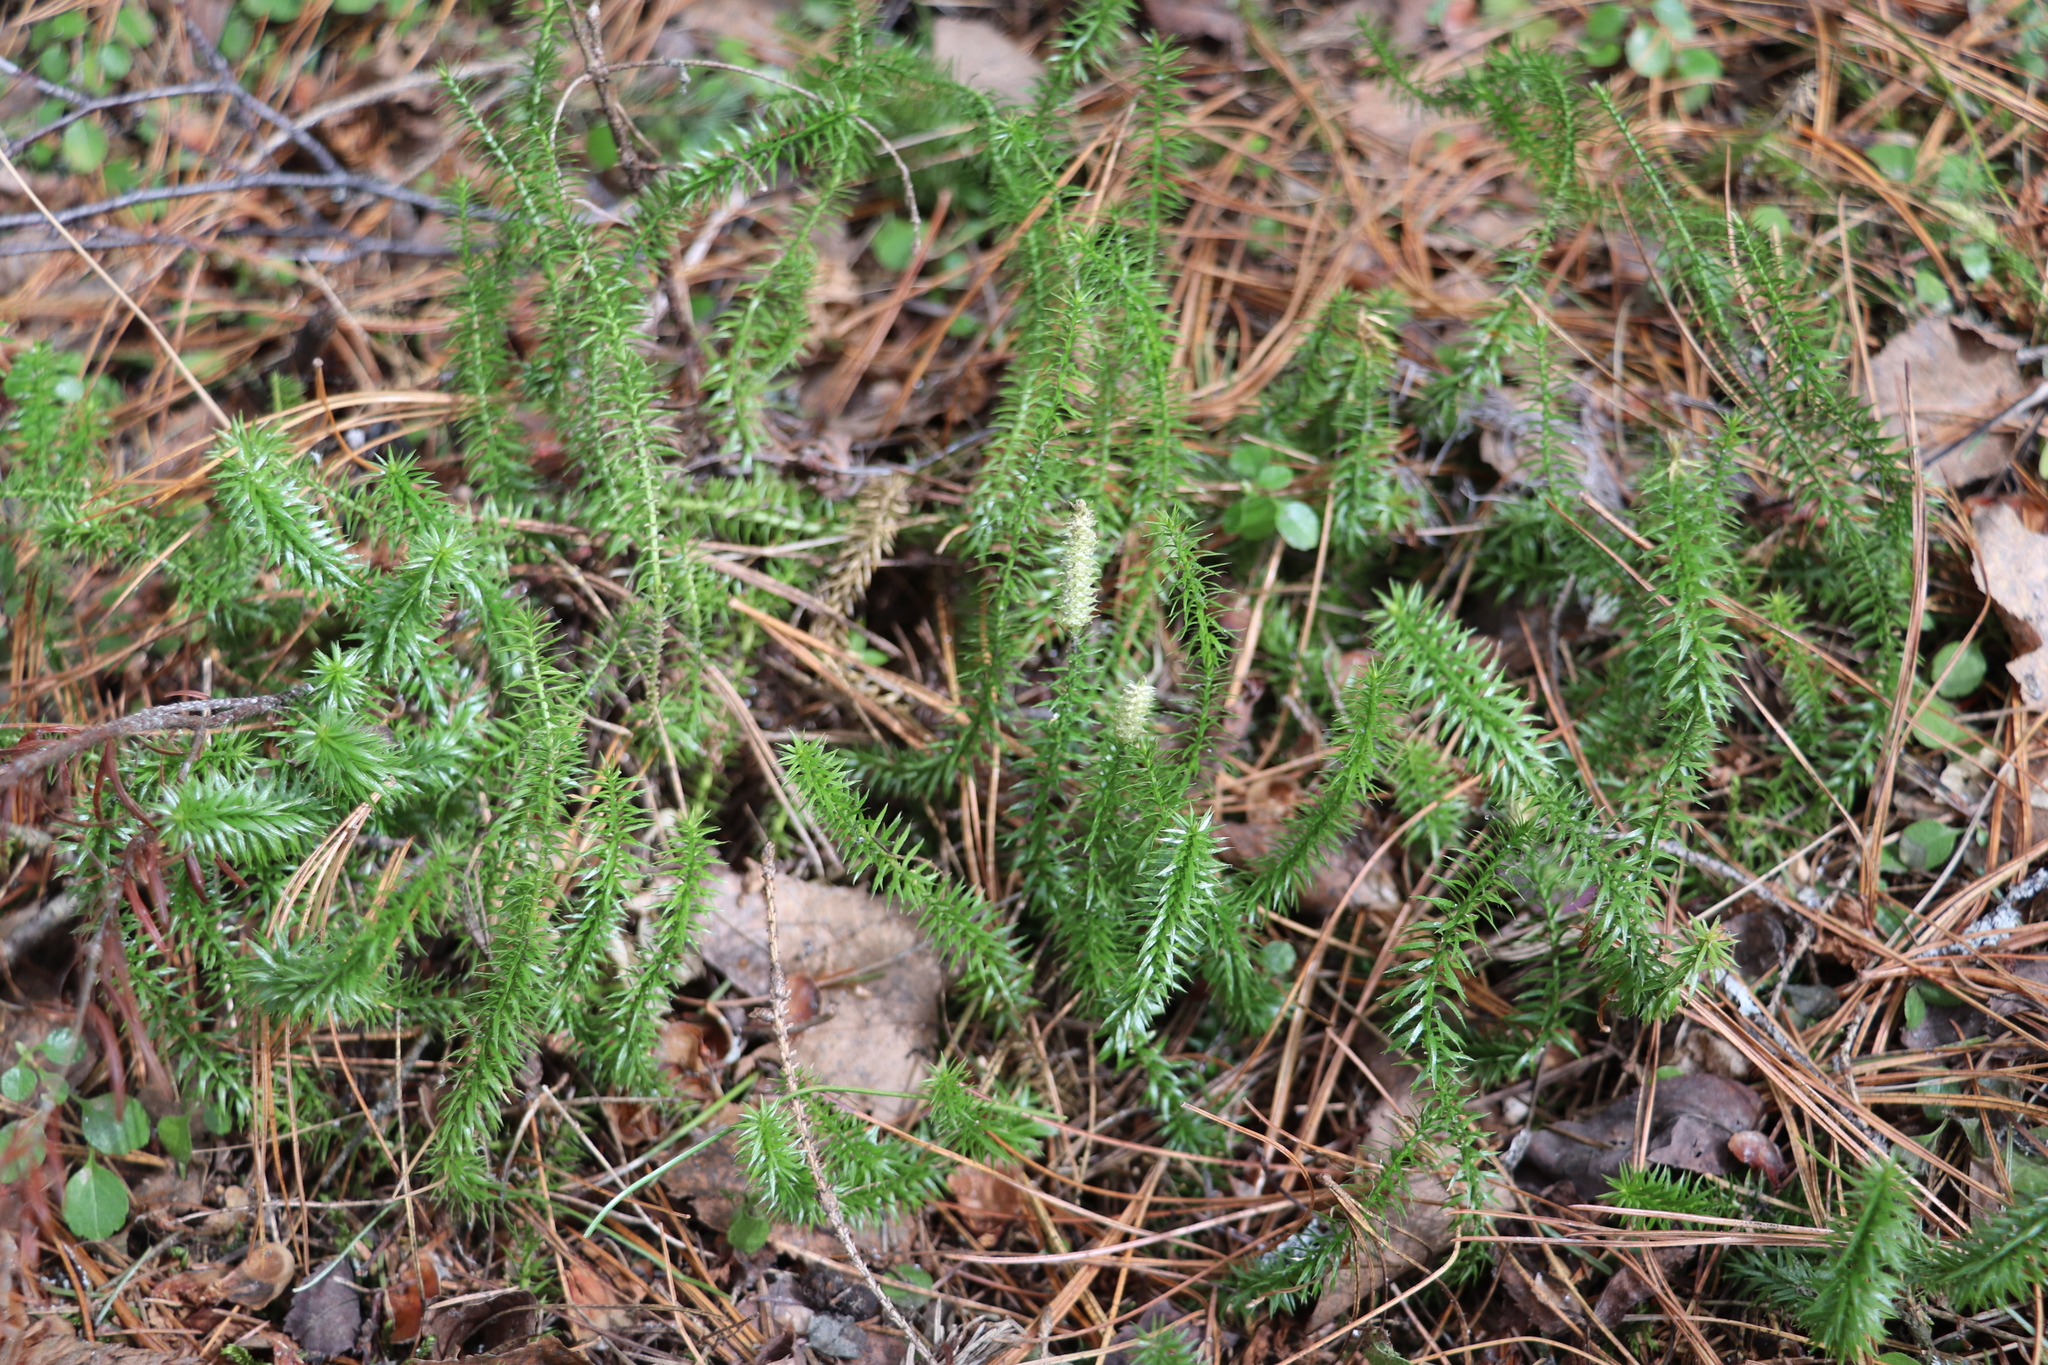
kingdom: Plantae
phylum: Tracheophyta
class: Lycopodiopsida
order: Lycopodiales
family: Lycopodiaceae
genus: Spinulum
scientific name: Spinulum annotinum
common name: Interrupted club-moss
